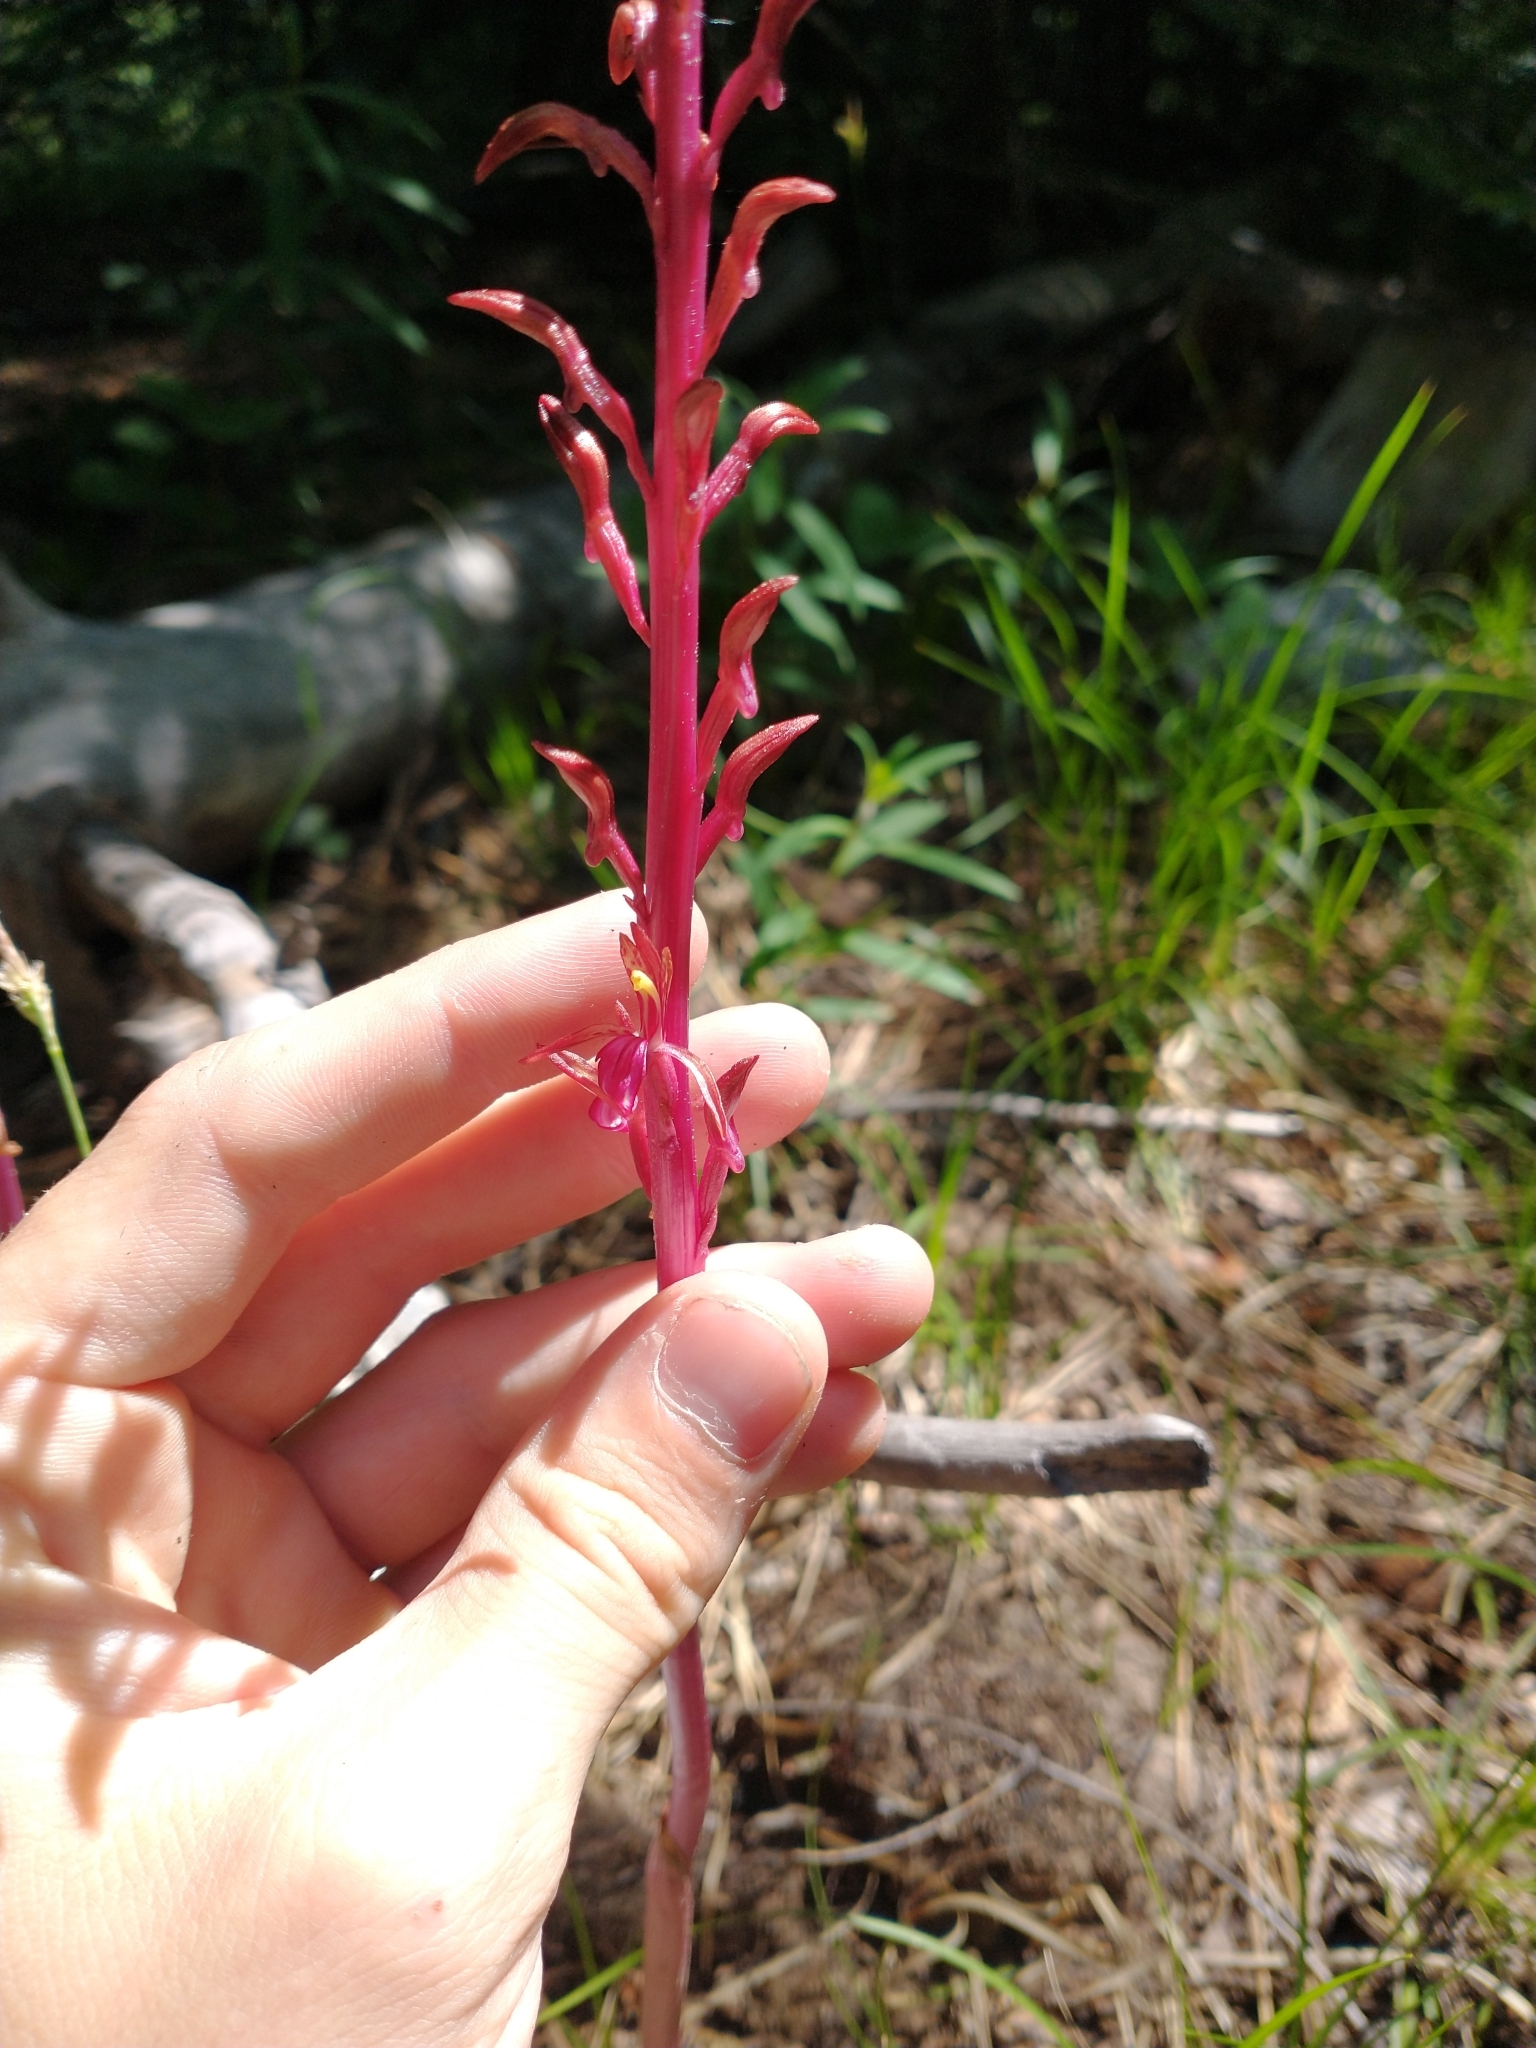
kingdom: Plantae
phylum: Tracheophyta
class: Liliopsida
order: Asparagales
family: Orchidaceae
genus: Corallorhiza
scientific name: Corallorhiza mertensiana
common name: Pacific coralroot
